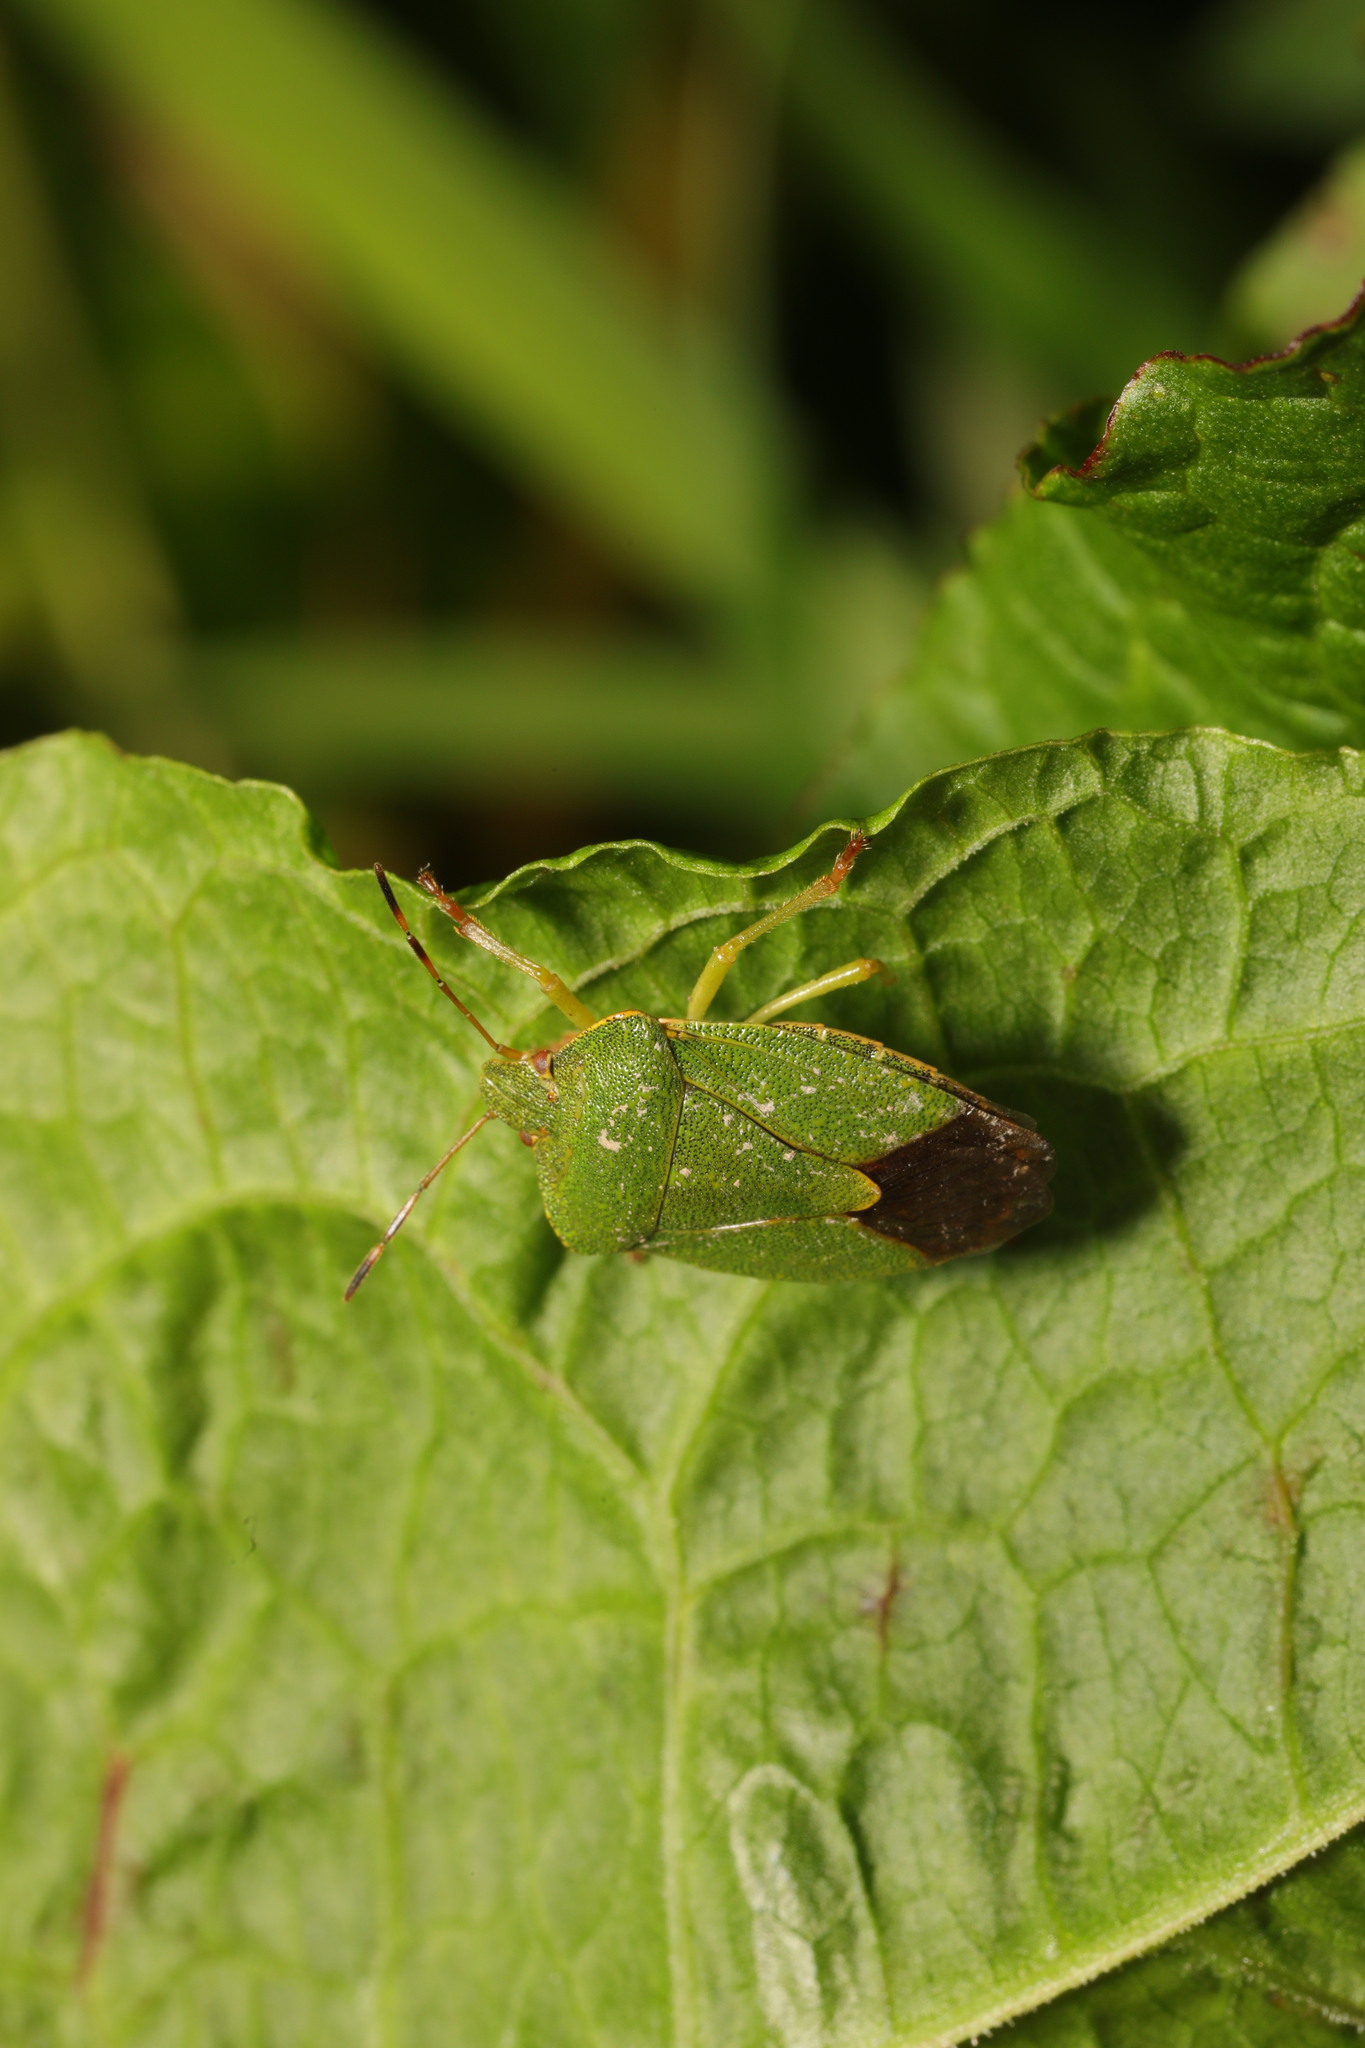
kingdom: Animalia
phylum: Arthropoda
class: Insecta
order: Hemiptera
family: Pentatomidae
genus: Palomena
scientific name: Palomena prasina
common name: Green shieldbug
